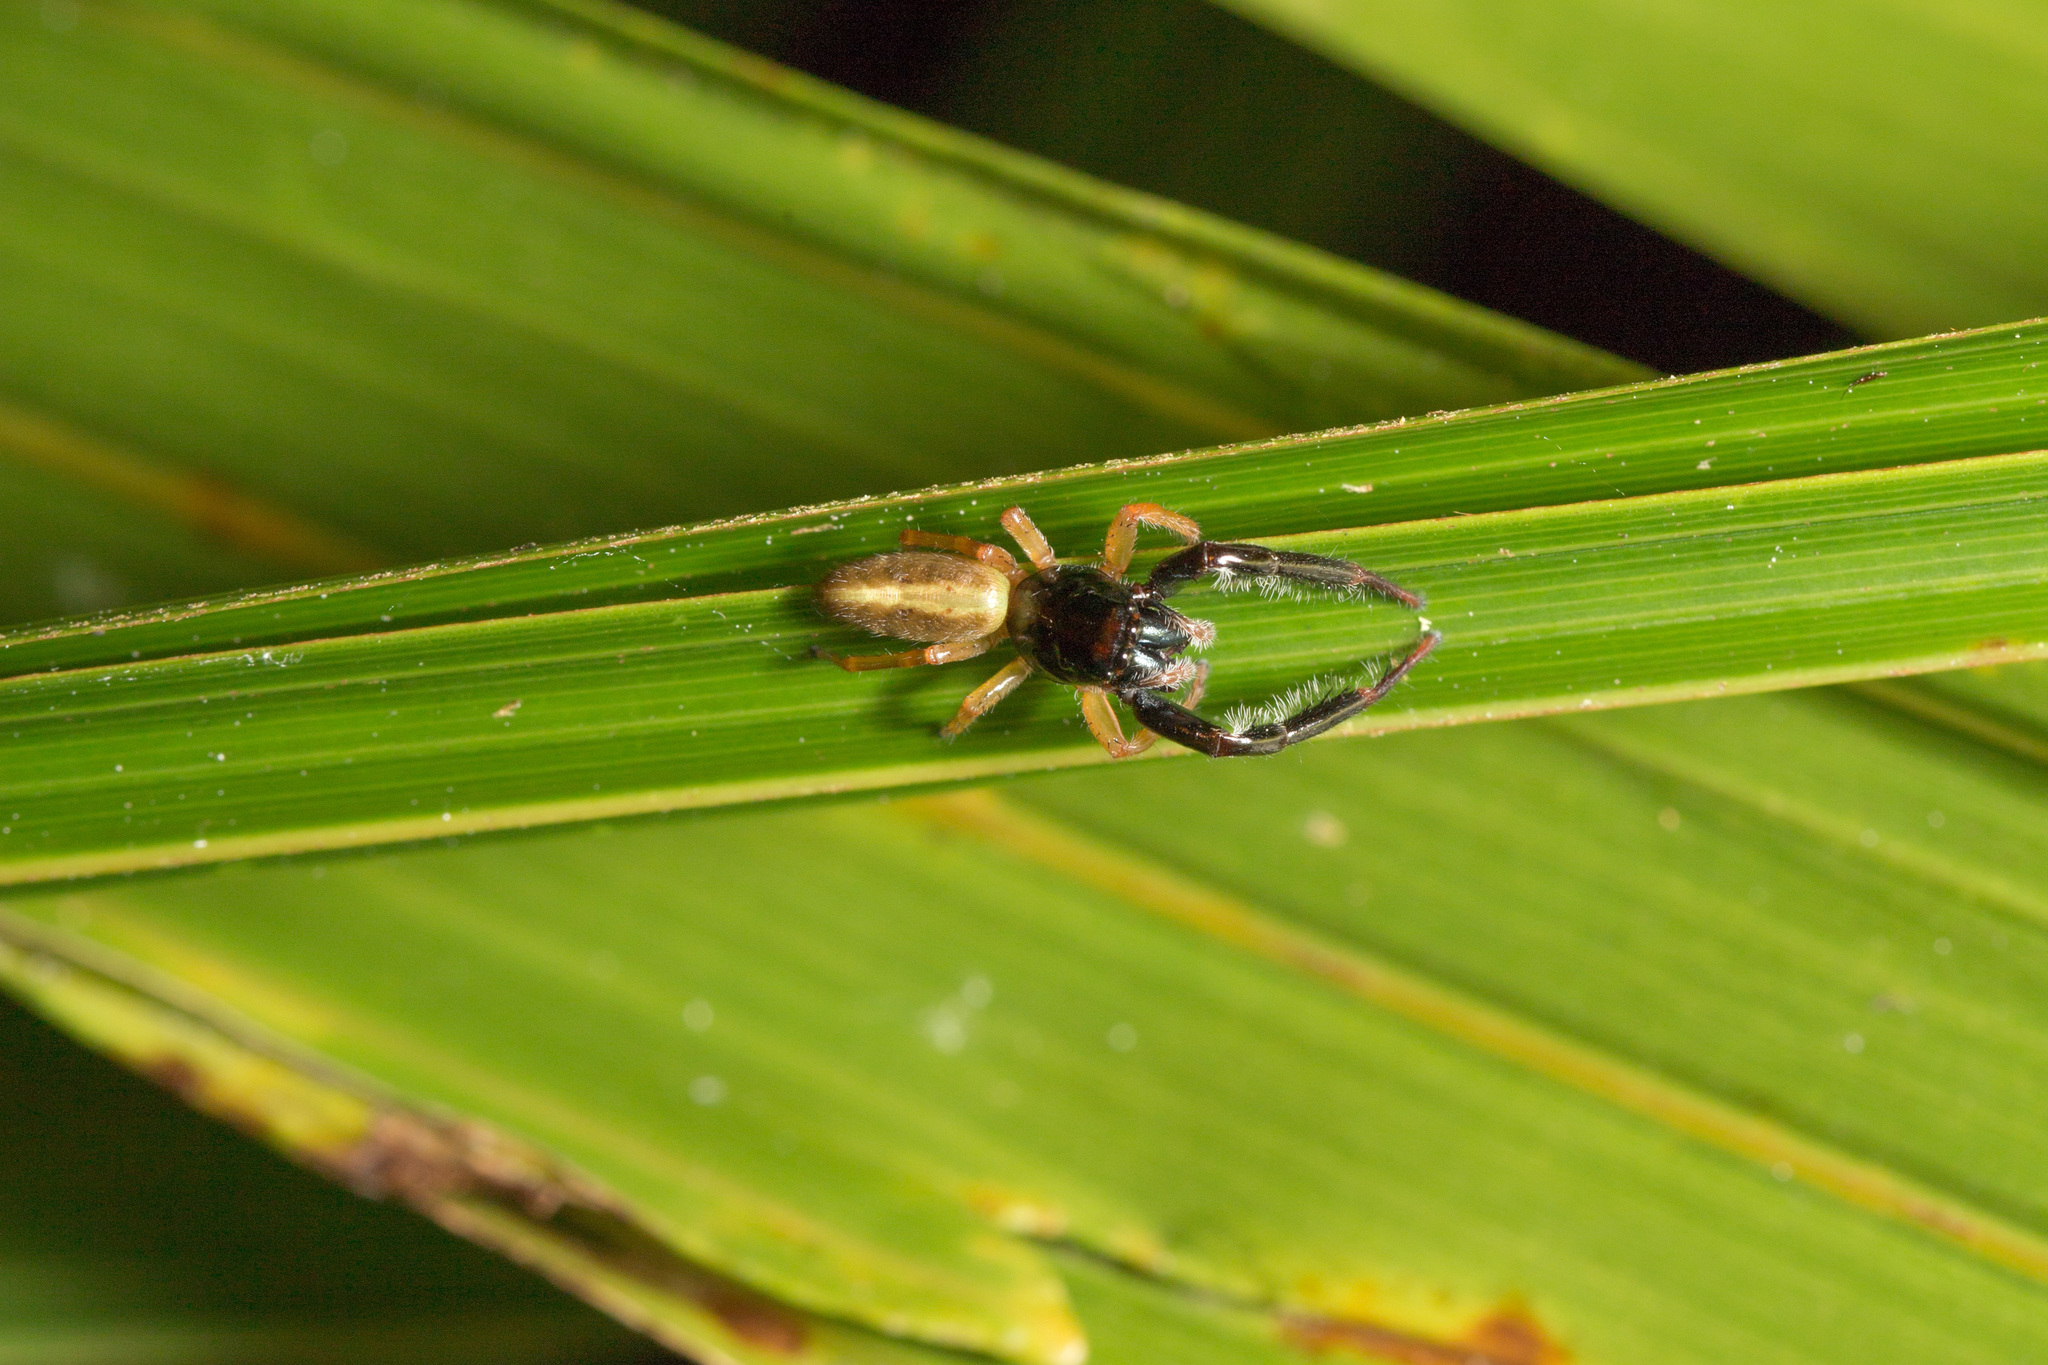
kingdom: Animalia
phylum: Arthropoda
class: Arachnida
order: Araneae
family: Salticidae
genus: Trite
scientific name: Trite planiceps
